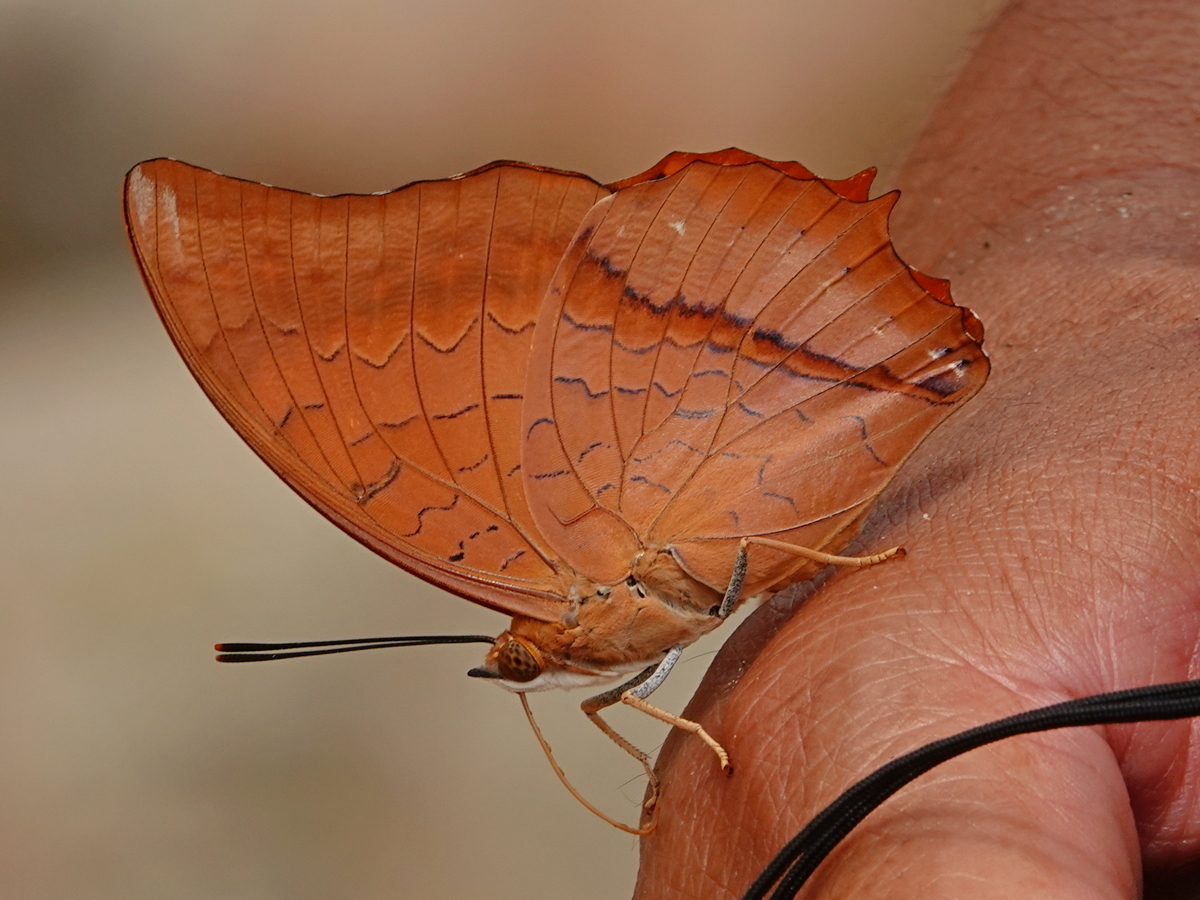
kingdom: Animalia
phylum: Arthropoda
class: Insecta
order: Lepidoptera
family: Nymphalidae
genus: Charaxes
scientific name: Charaxes bernardus
